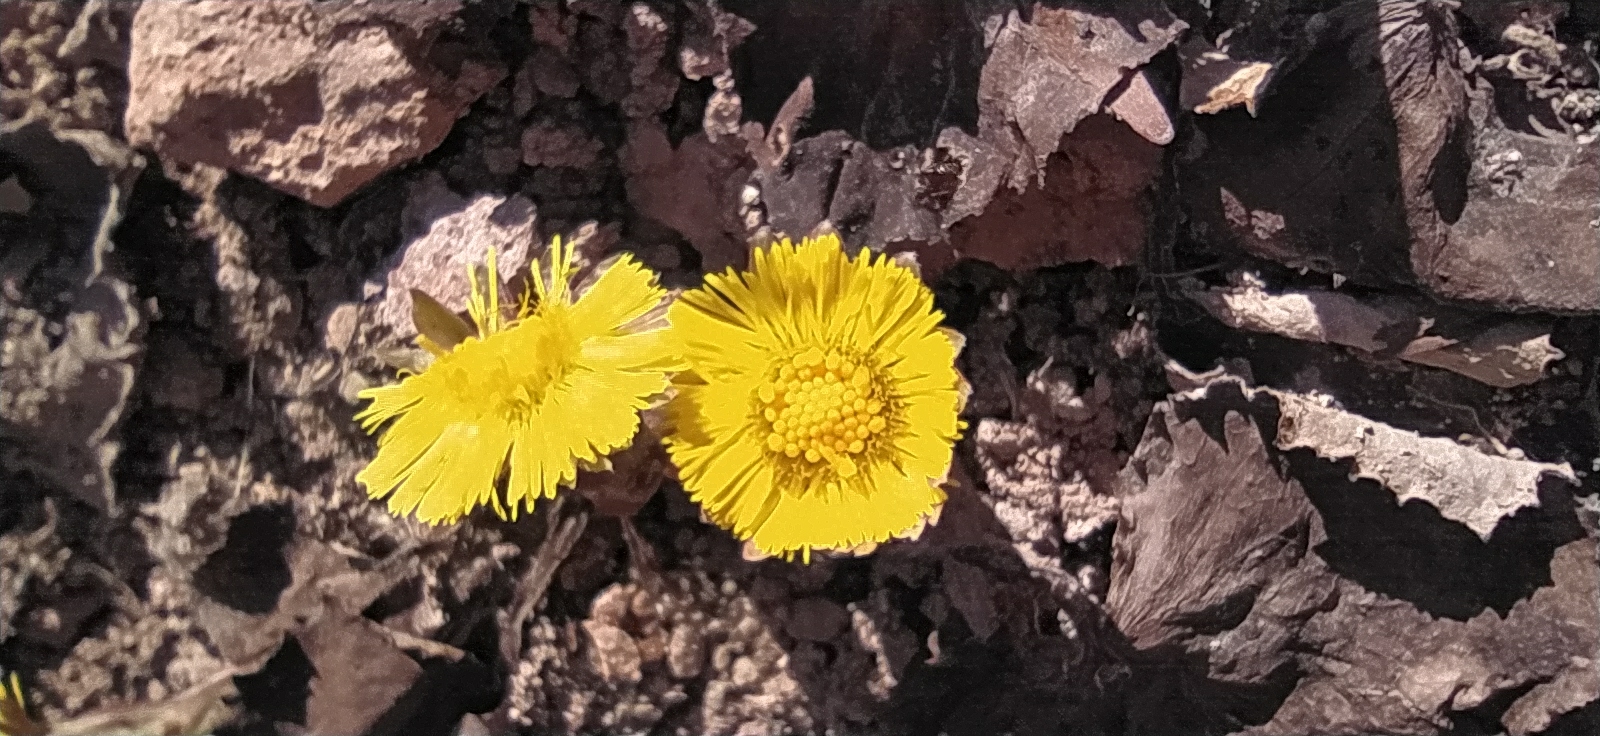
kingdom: Plantae
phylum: Tracheophyta
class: Magnoliopsida
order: Asterales
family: Asteraceae
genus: Tussilago
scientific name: Tussilago farfara
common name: Coltsfoot
